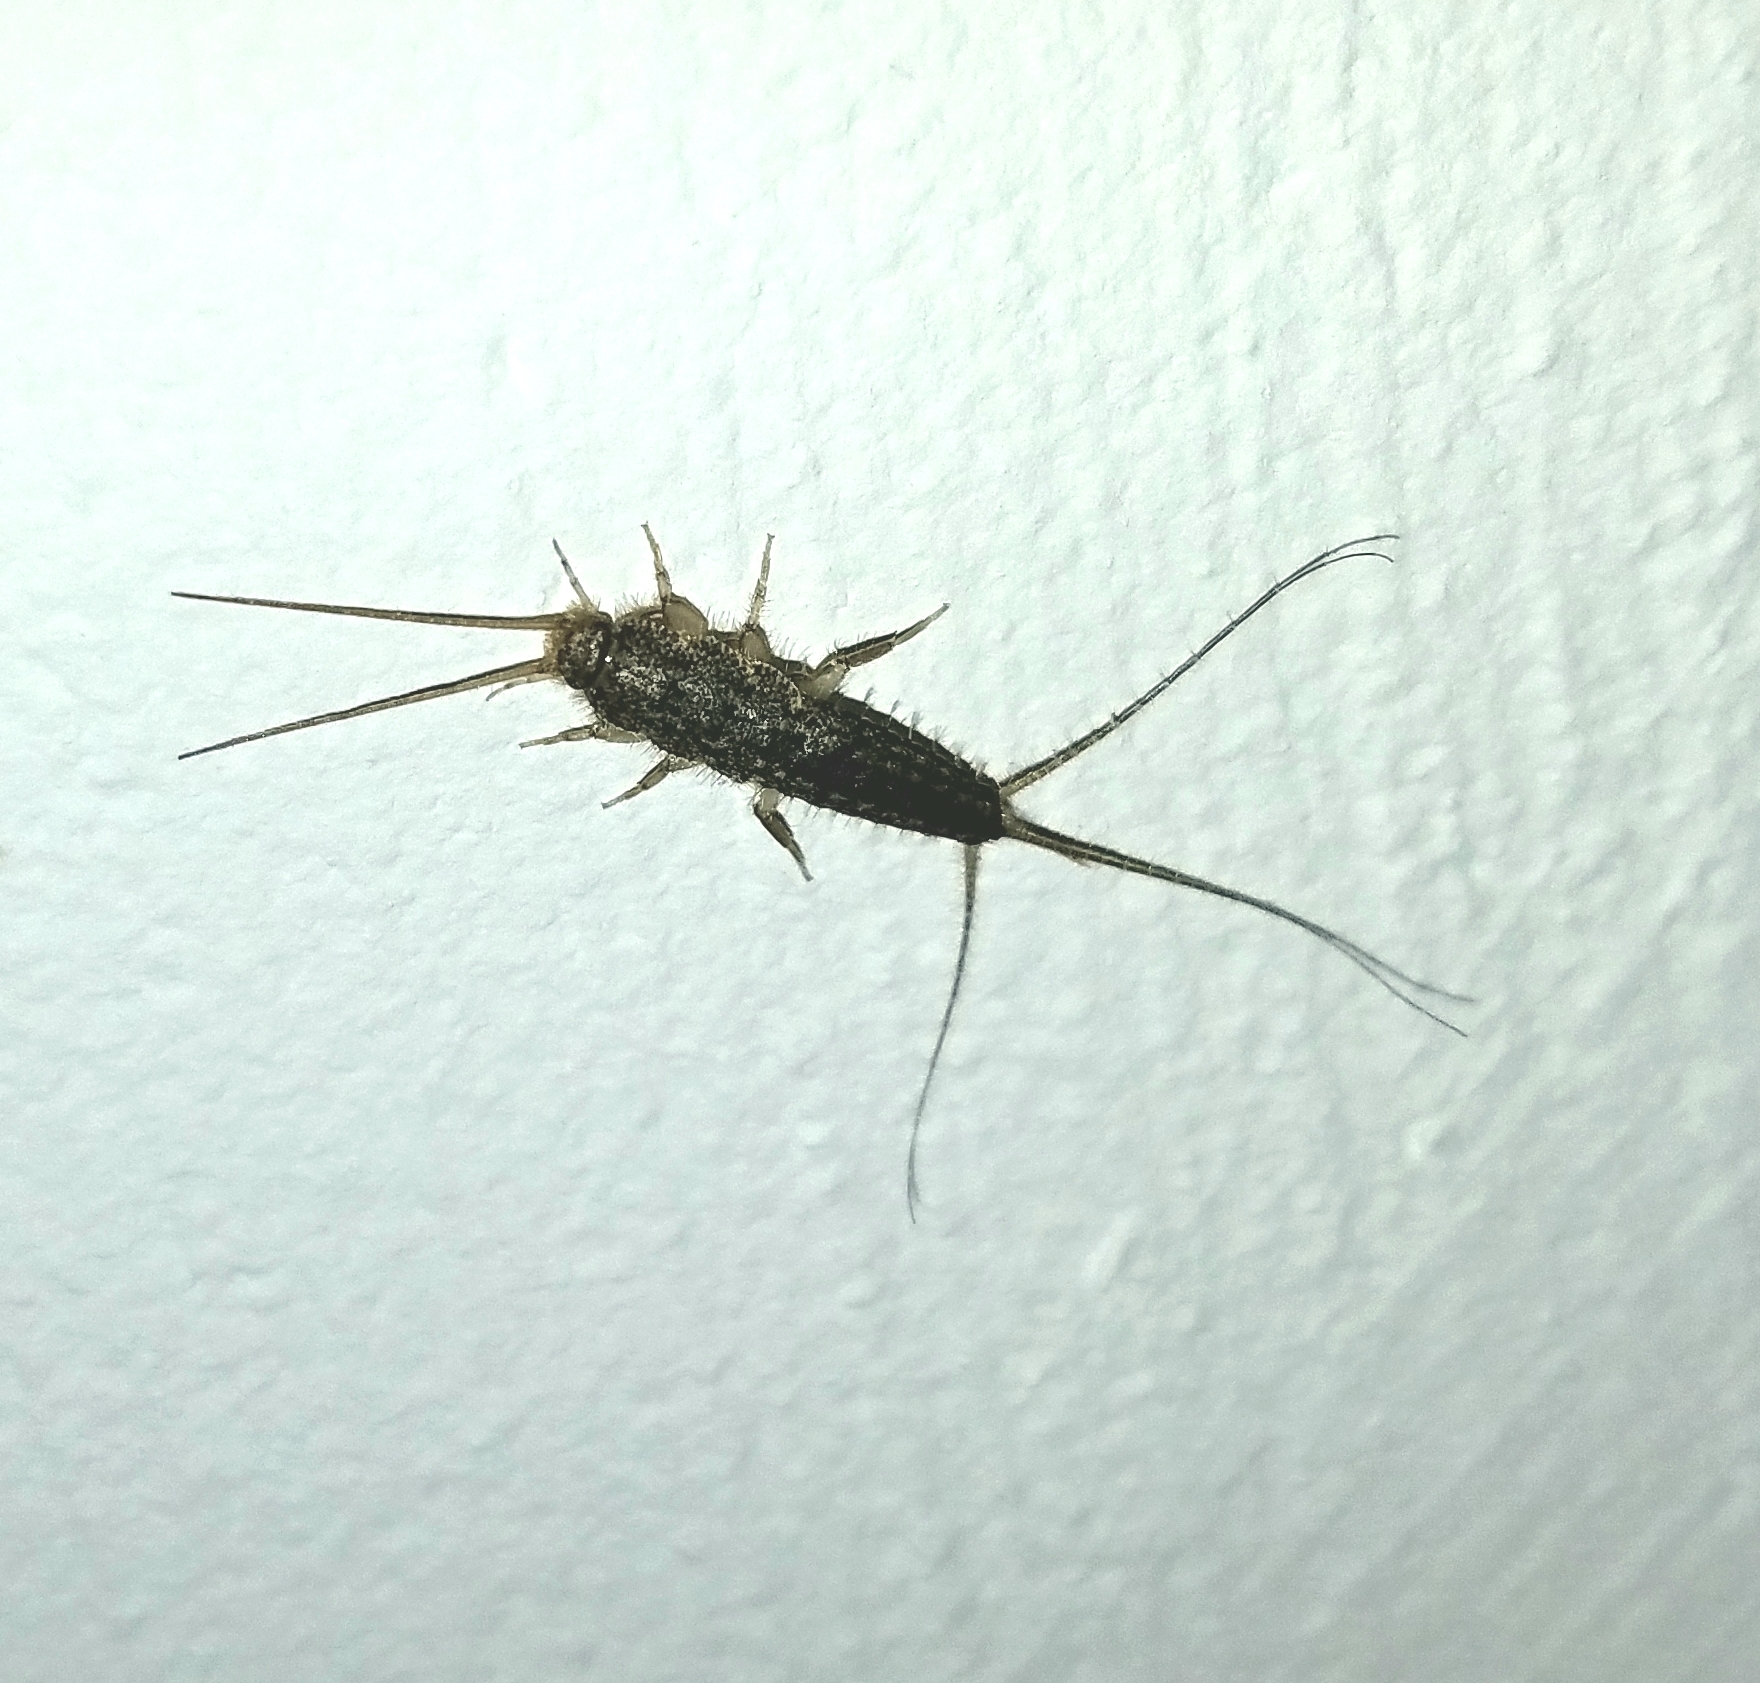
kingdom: Animalia
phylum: Arthropoda
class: Insecta
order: Zygentoma
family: Lepismatidae
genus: Ctenolepisma
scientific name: Ctenolepisma lineata
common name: Four-lined silverfish
